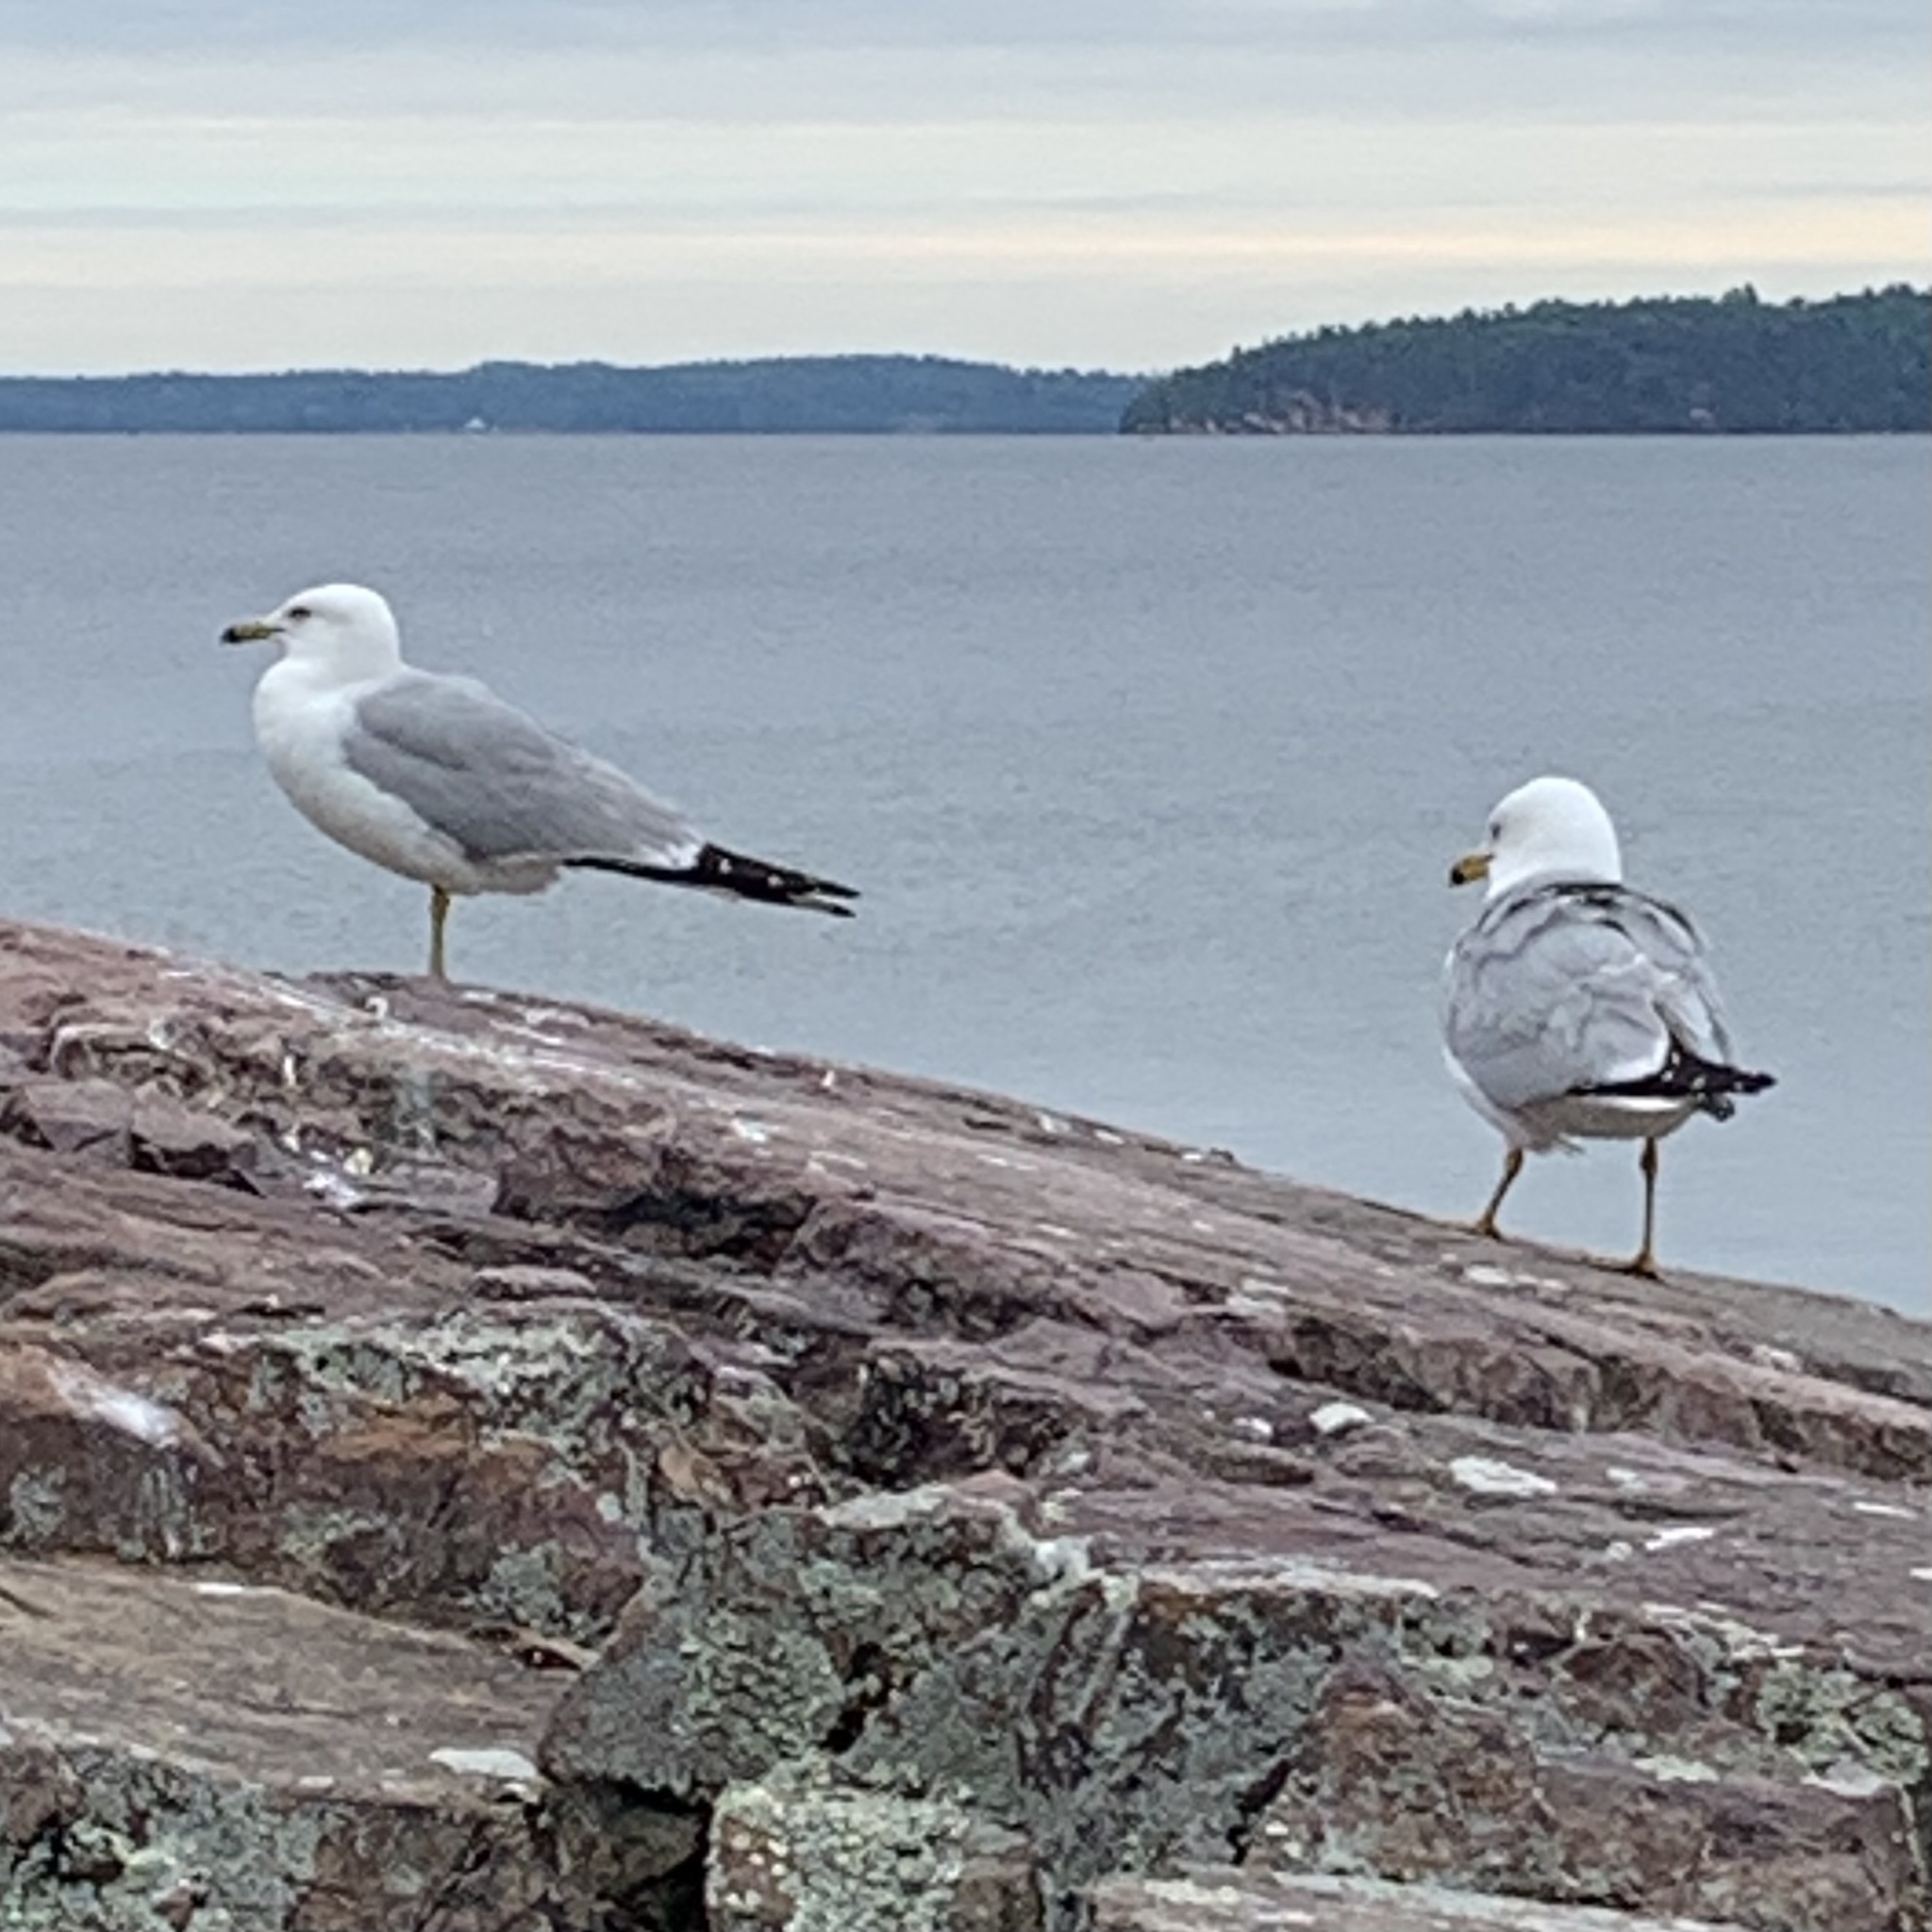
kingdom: Animalia
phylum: Chordata
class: Aves
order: Charadriiformes
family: Laridae
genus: Larus
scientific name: Larus delawarensis
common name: Ring-billed gull
